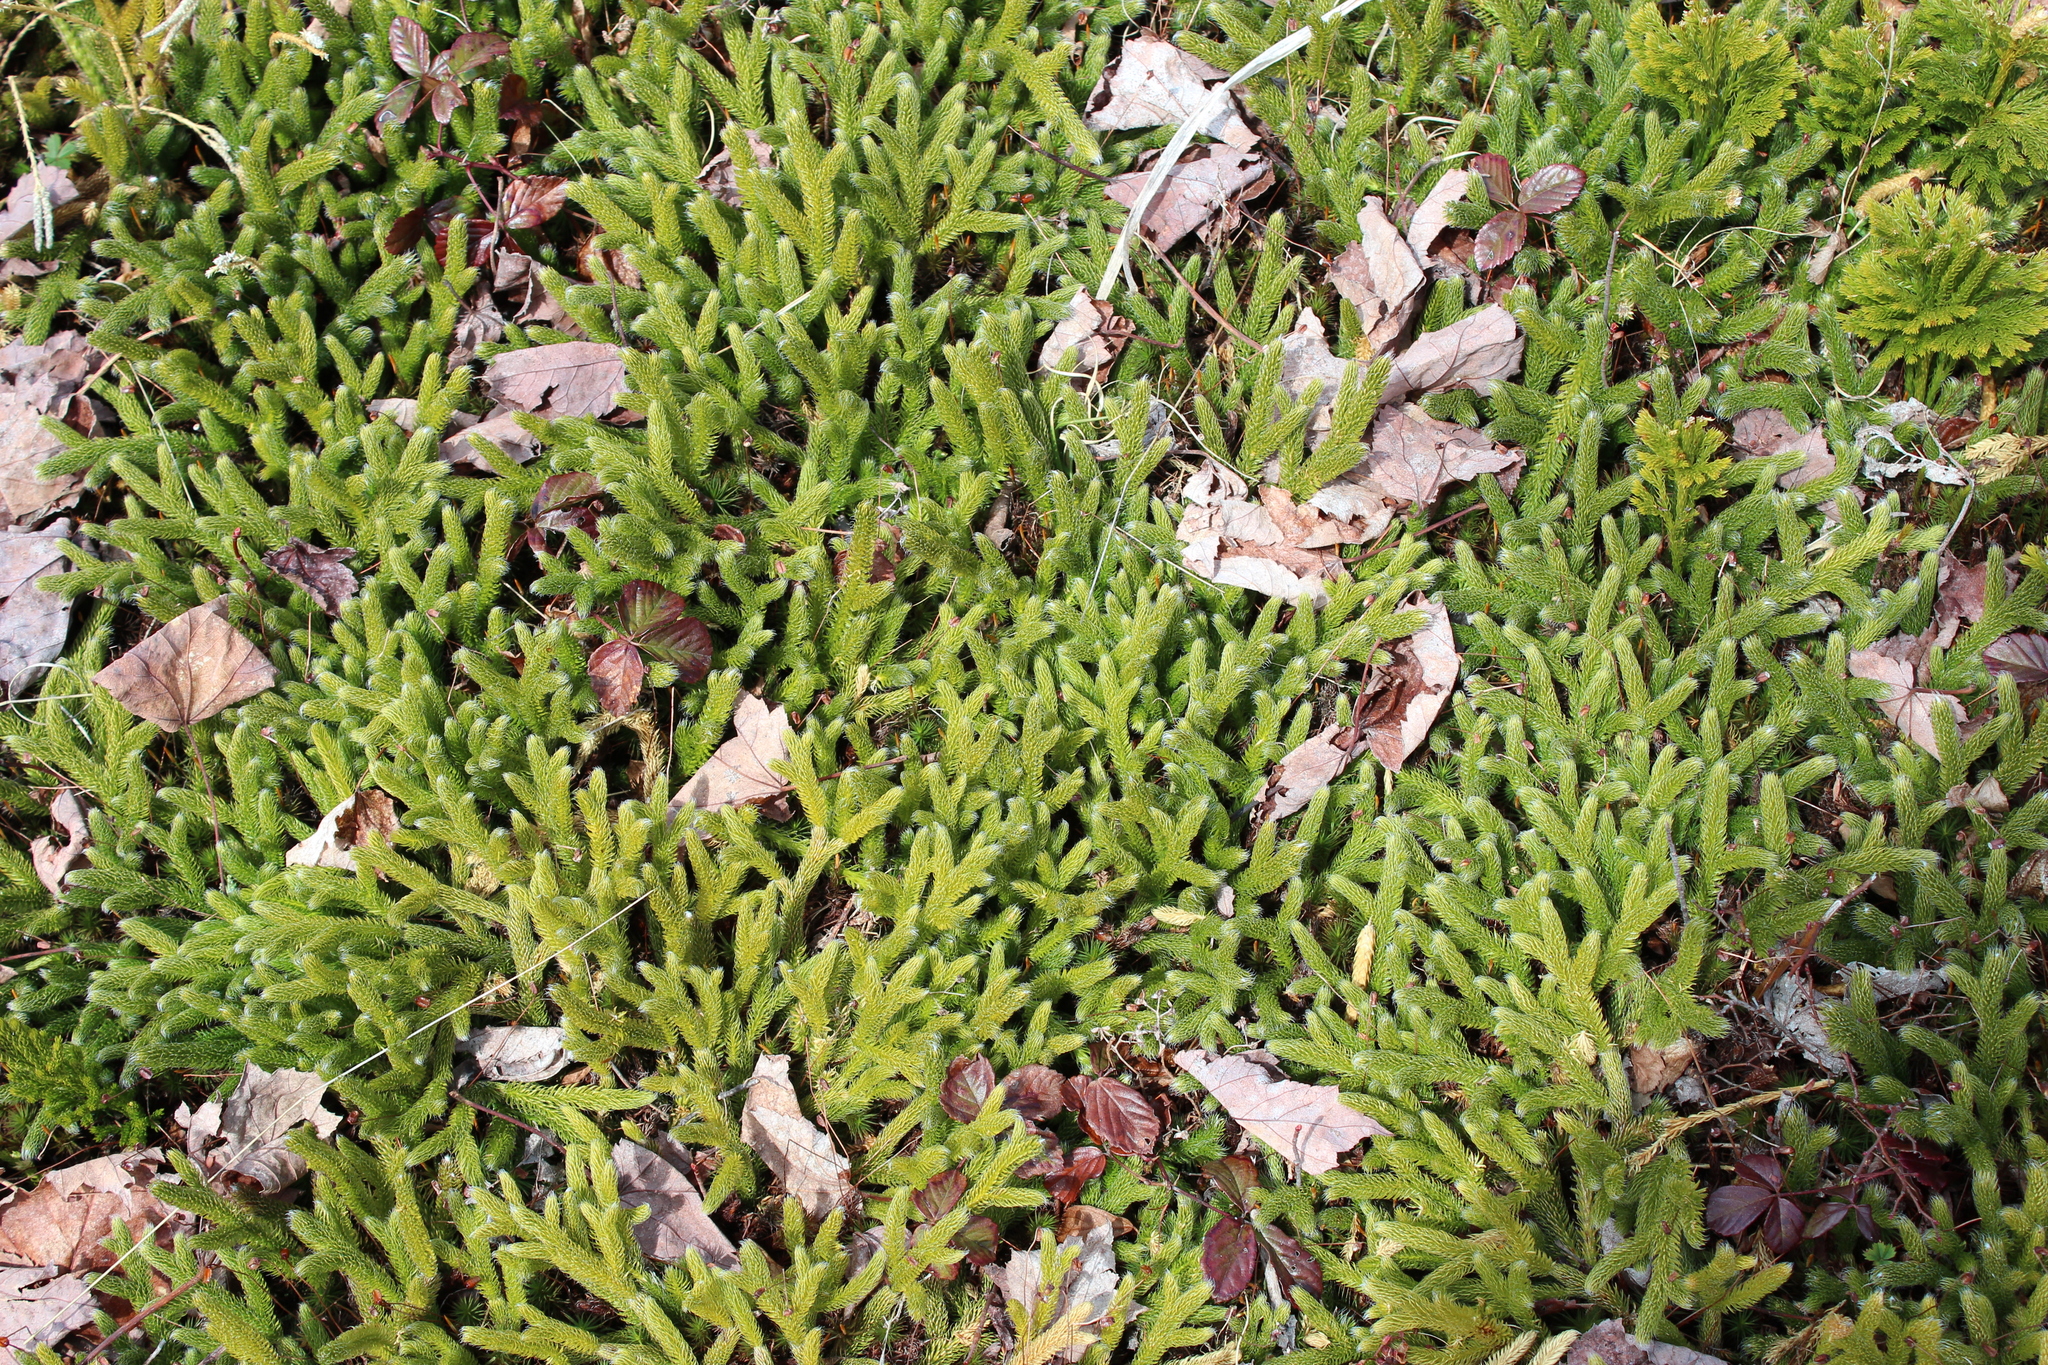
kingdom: Plantae
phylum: Tracheophyta
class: Lycopodiopsida
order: Lycopodiales
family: Lycopodiaceae
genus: Lycopodium
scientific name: Lycopodium clavatum
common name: Stag's-horn clubmoss
